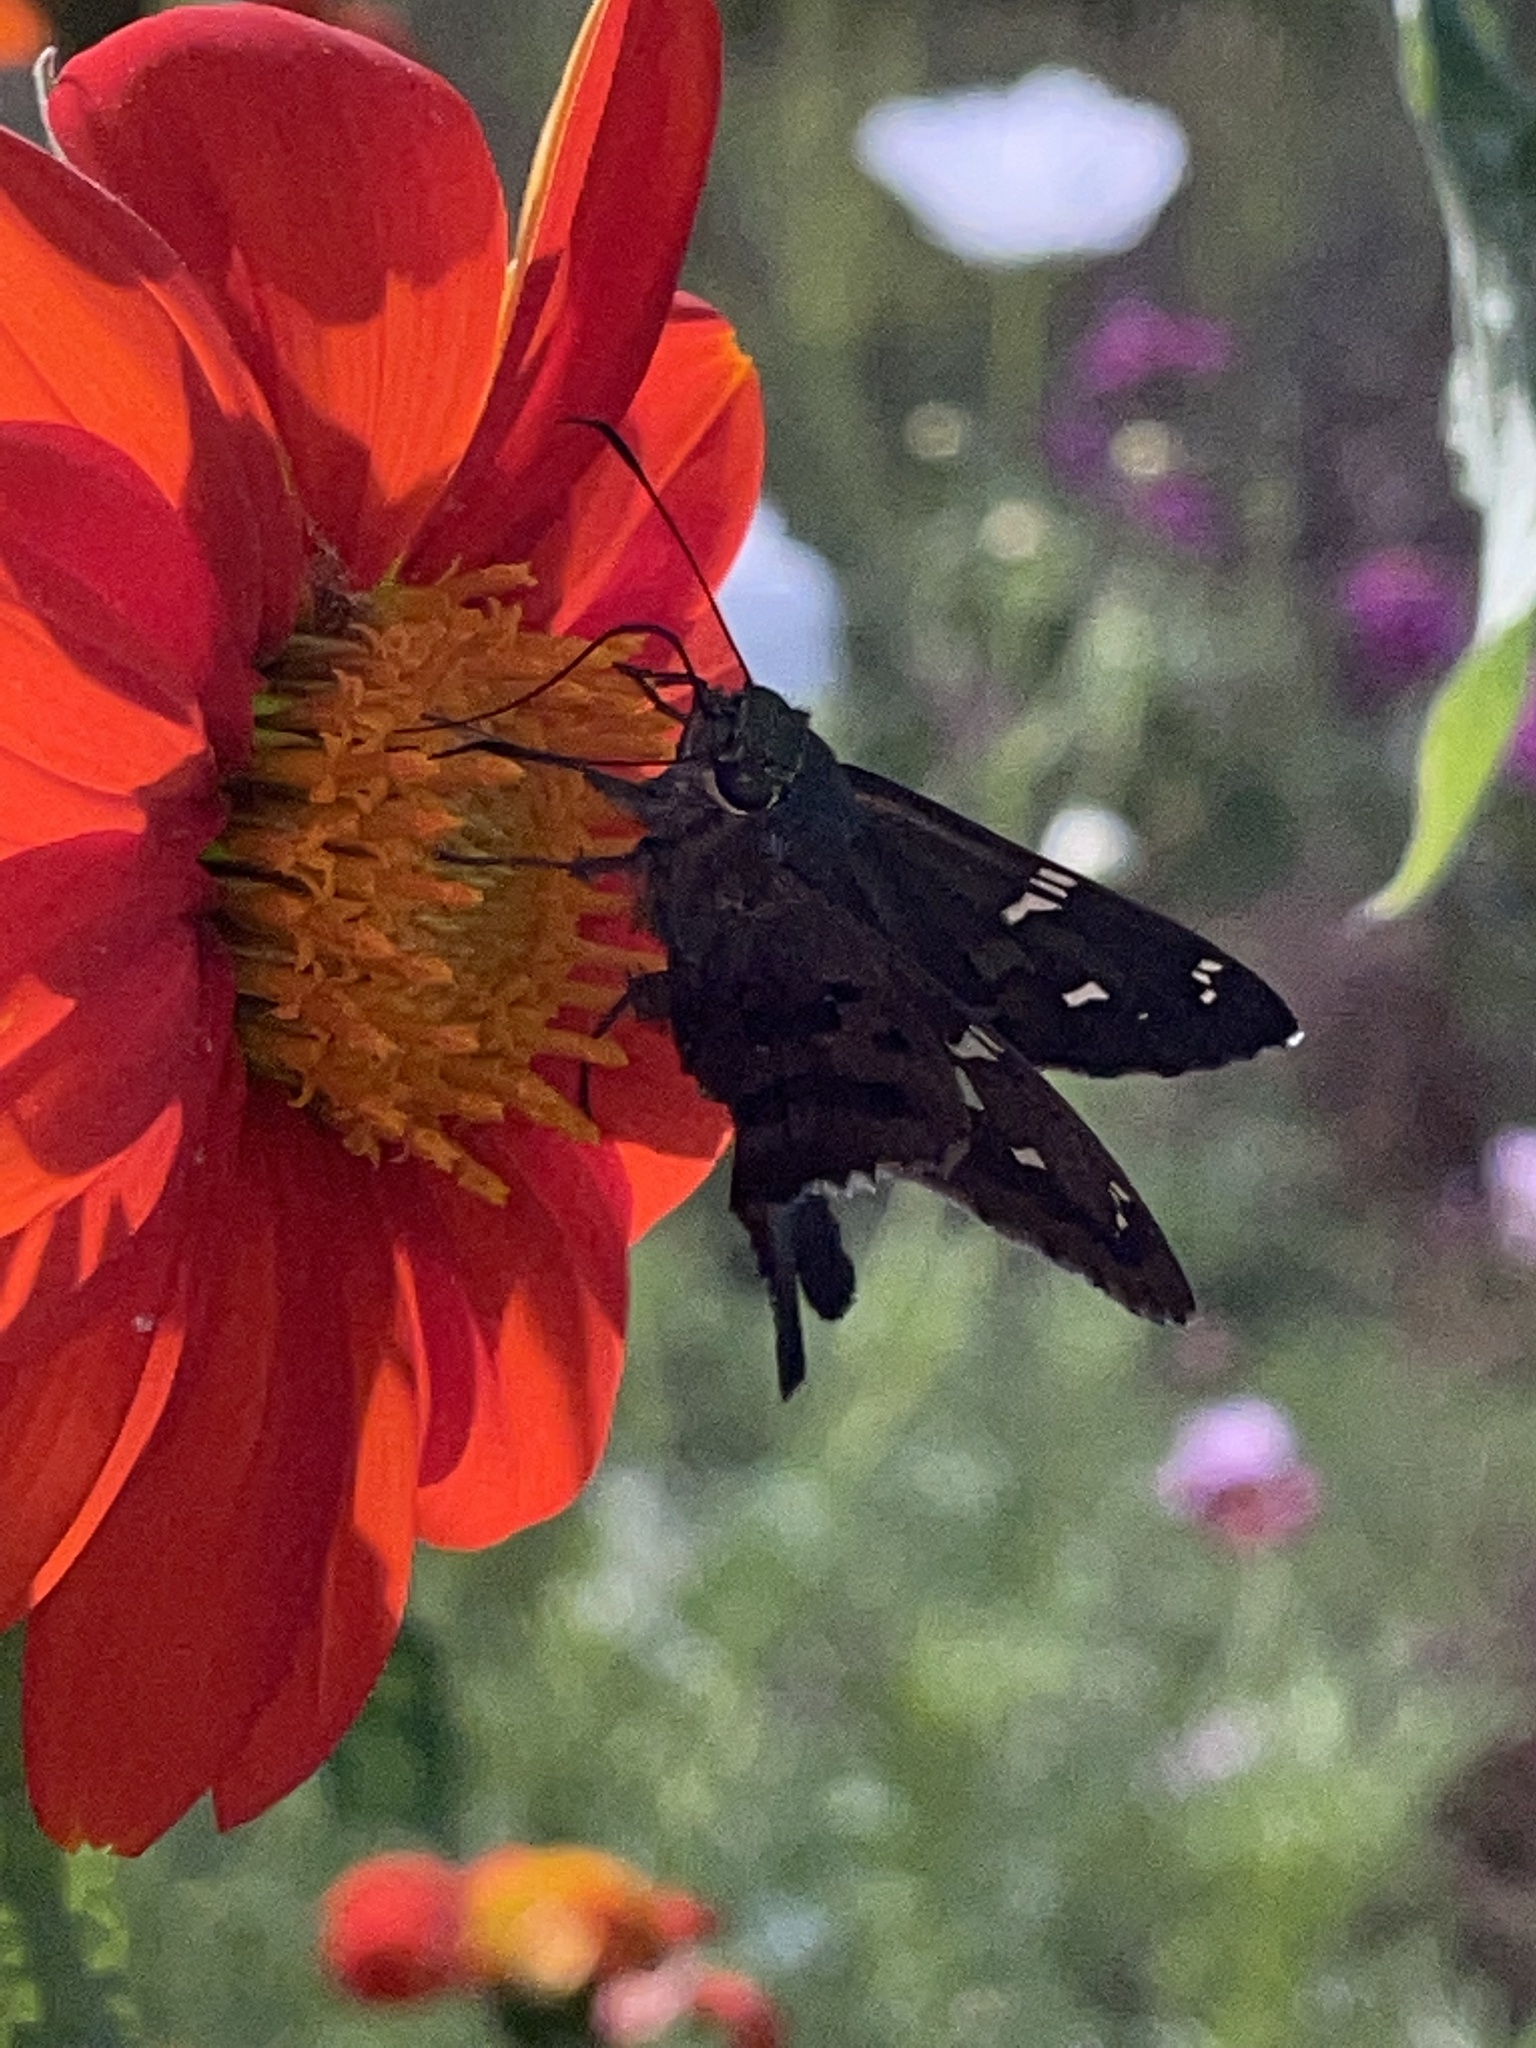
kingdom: Animalia
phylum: Arthropoda
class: Insecta
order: Lepidoptera
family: Hesperiidae
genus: Urbanus
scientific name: Urbanus proteus
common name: Long-tailed skipper
